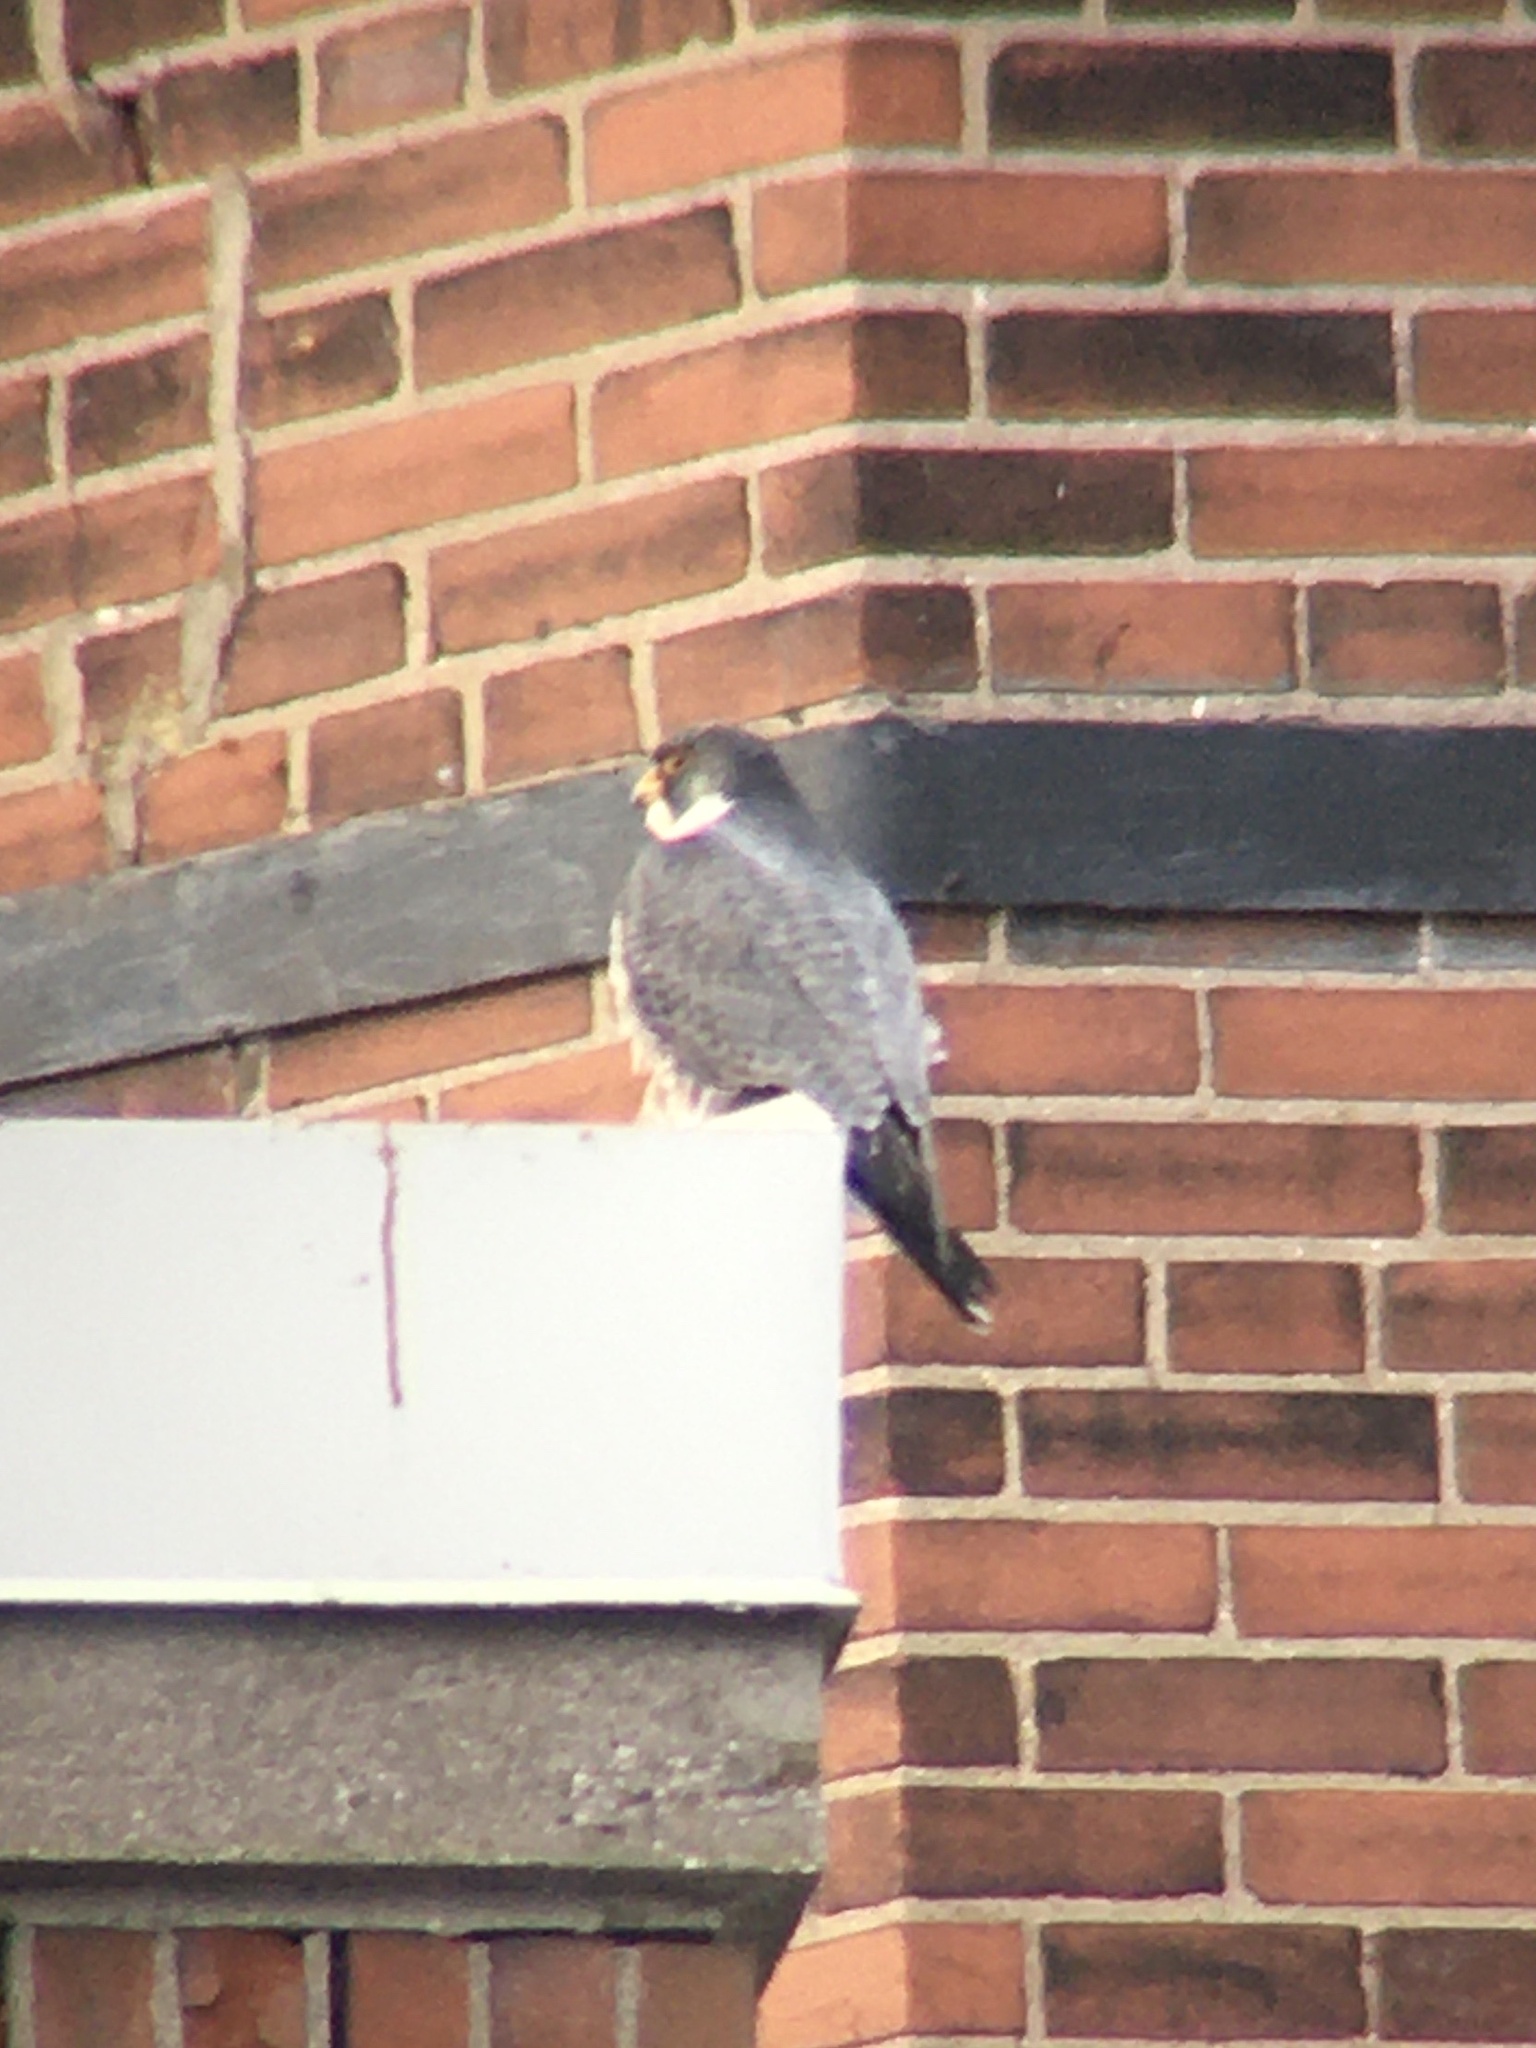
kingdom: Animalia
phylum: Chordata
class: Aves
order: Falconiformes
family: Falconidae
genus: Falco
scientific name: Falco peregrinus
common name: Peregrine falcon
